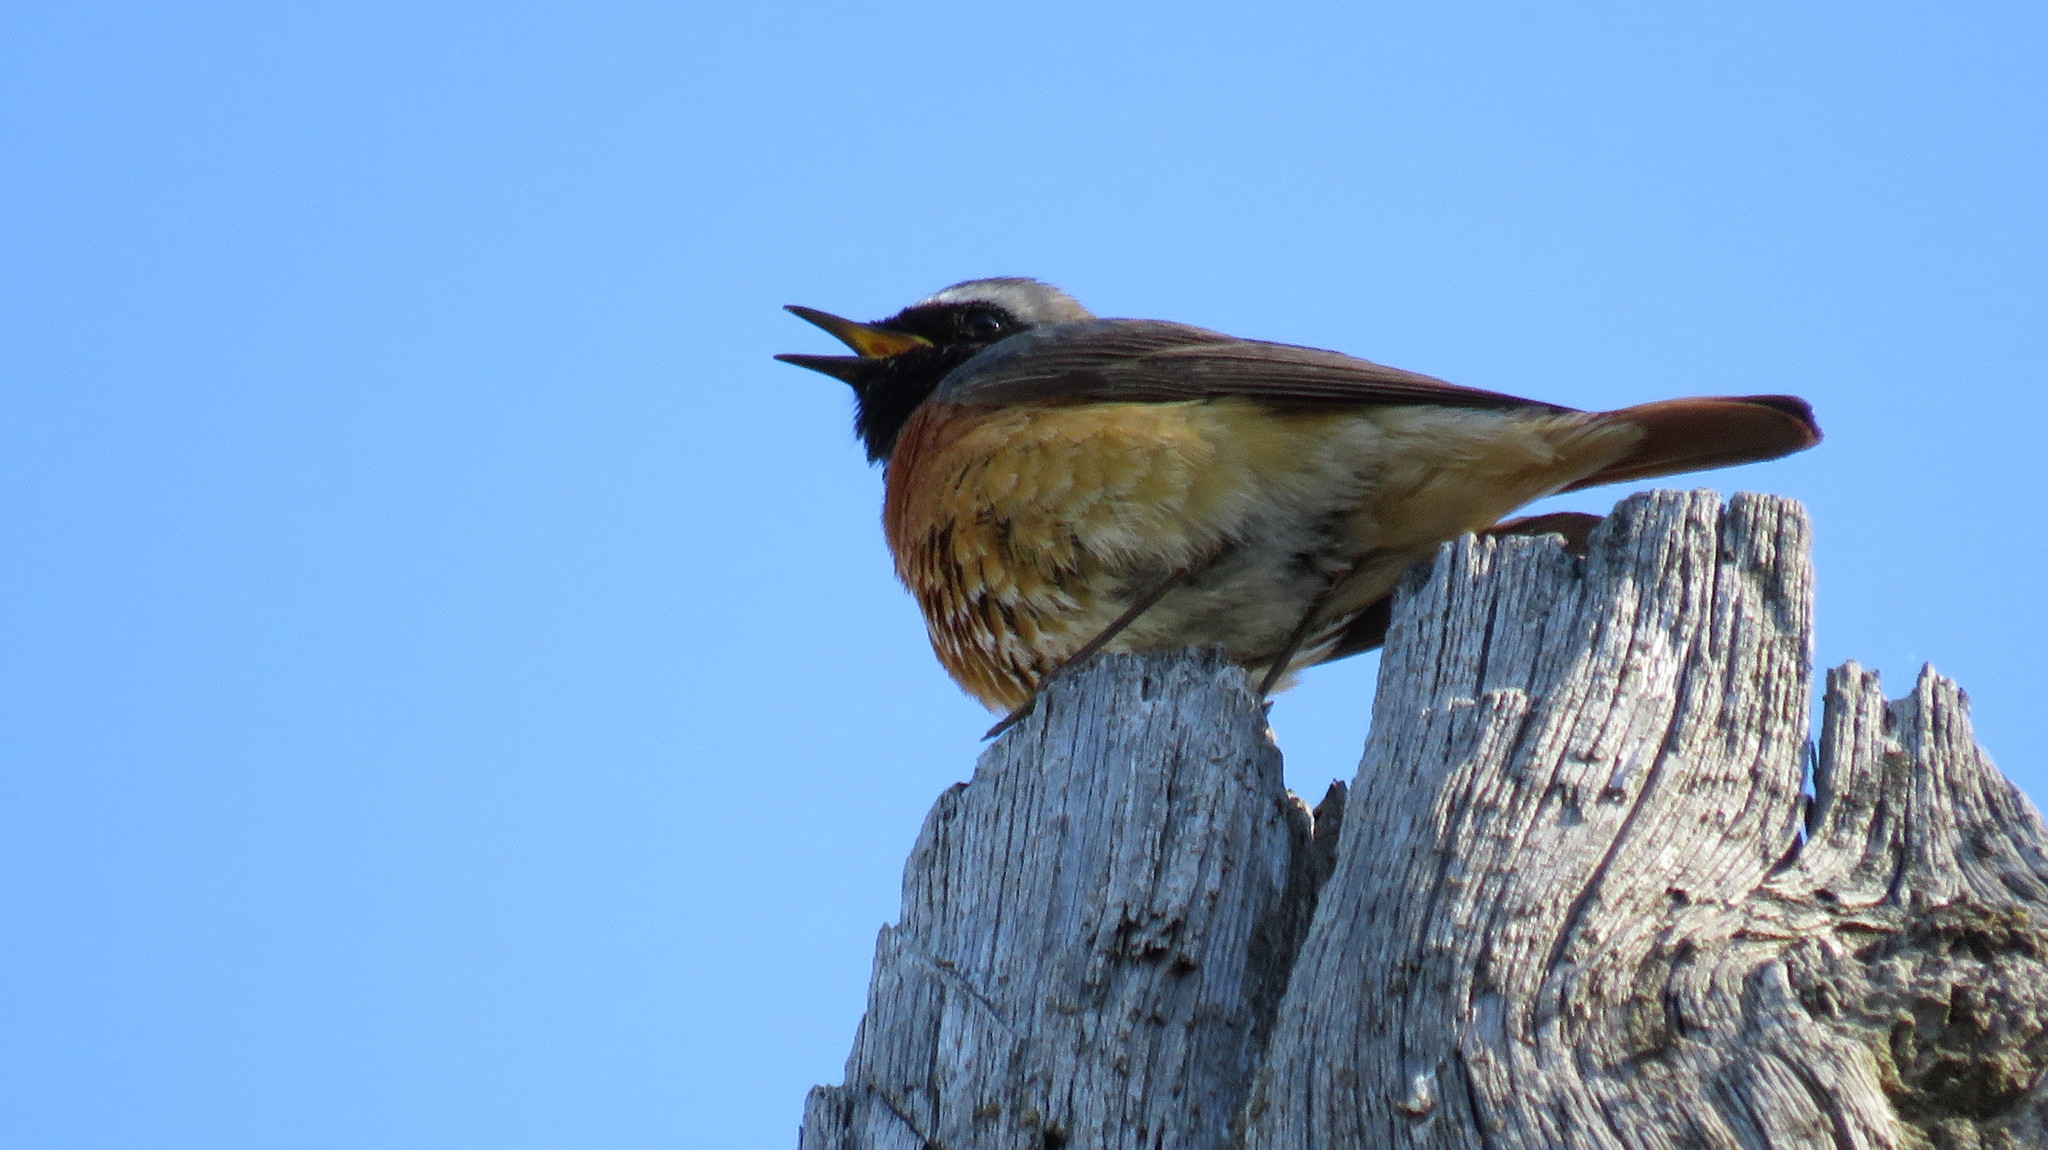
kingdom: Animalia
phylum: Chordata
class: Aves
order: Passeriformes
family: Muscicapidae
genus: Phoenicurus
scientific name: Phoenicurus phoenicurus
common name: Common redstart
